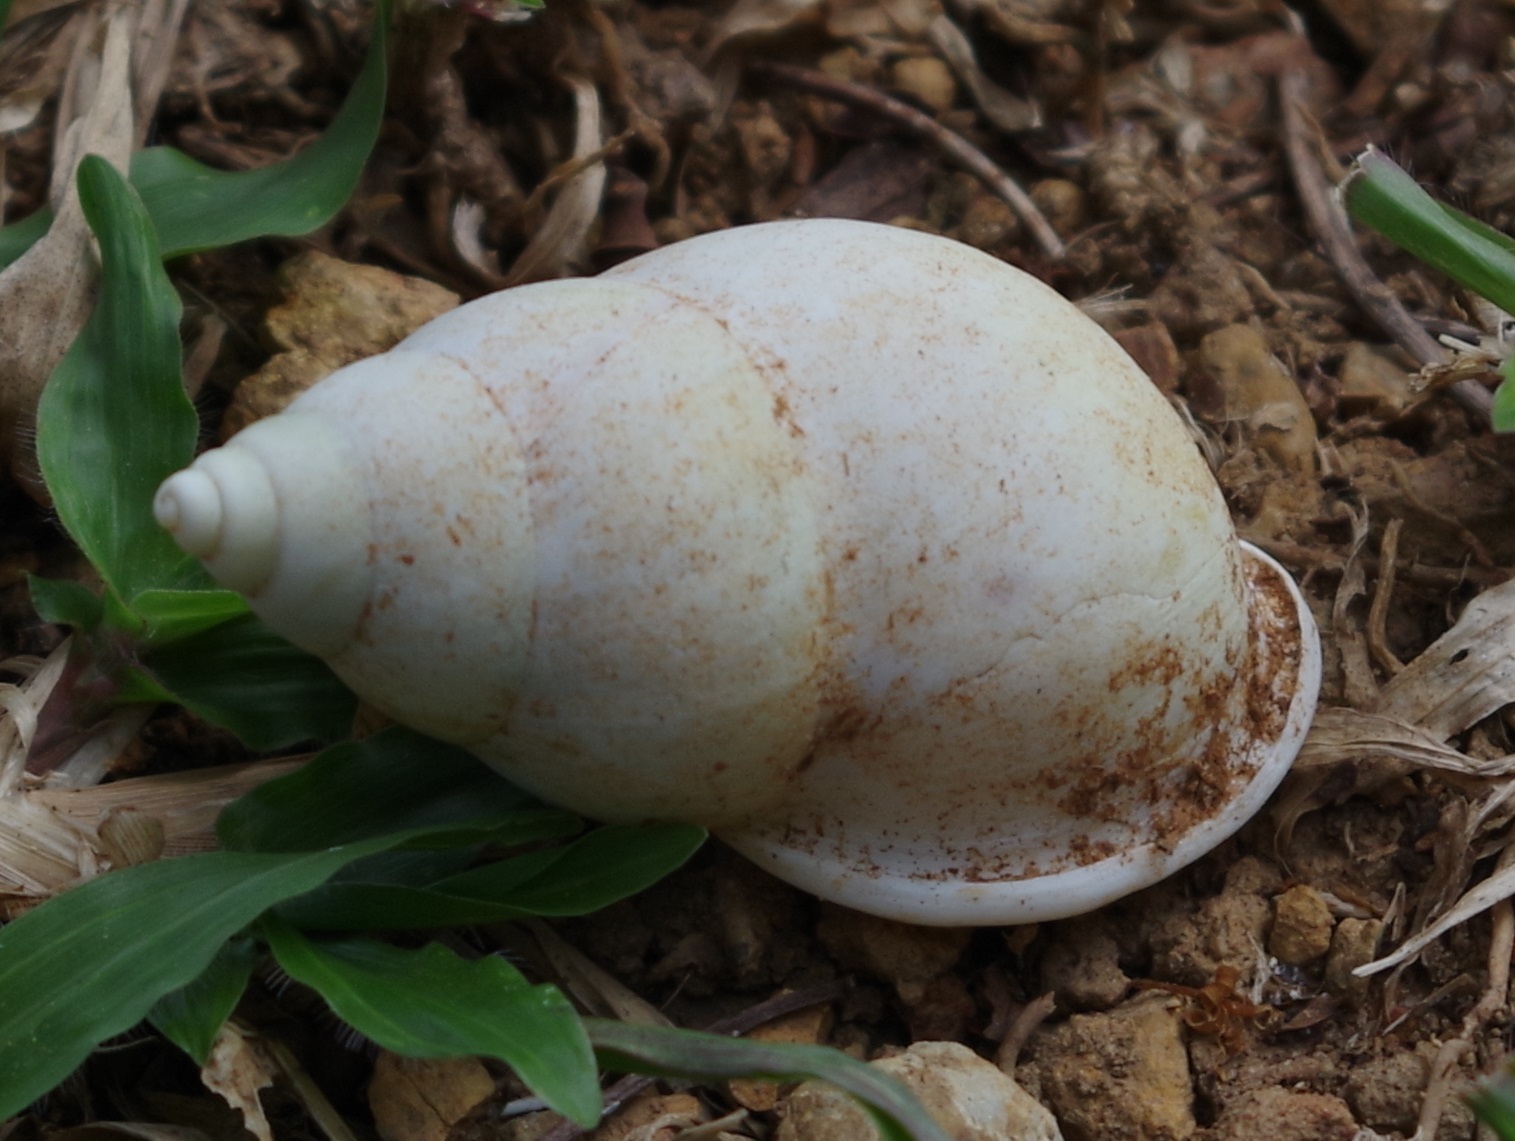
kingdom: Animalia
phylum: Mollusca
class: Gastropoda
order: Stylommatophora
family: Camaenidae
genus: Amphidromus
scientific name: Amphidromus atricallosus
